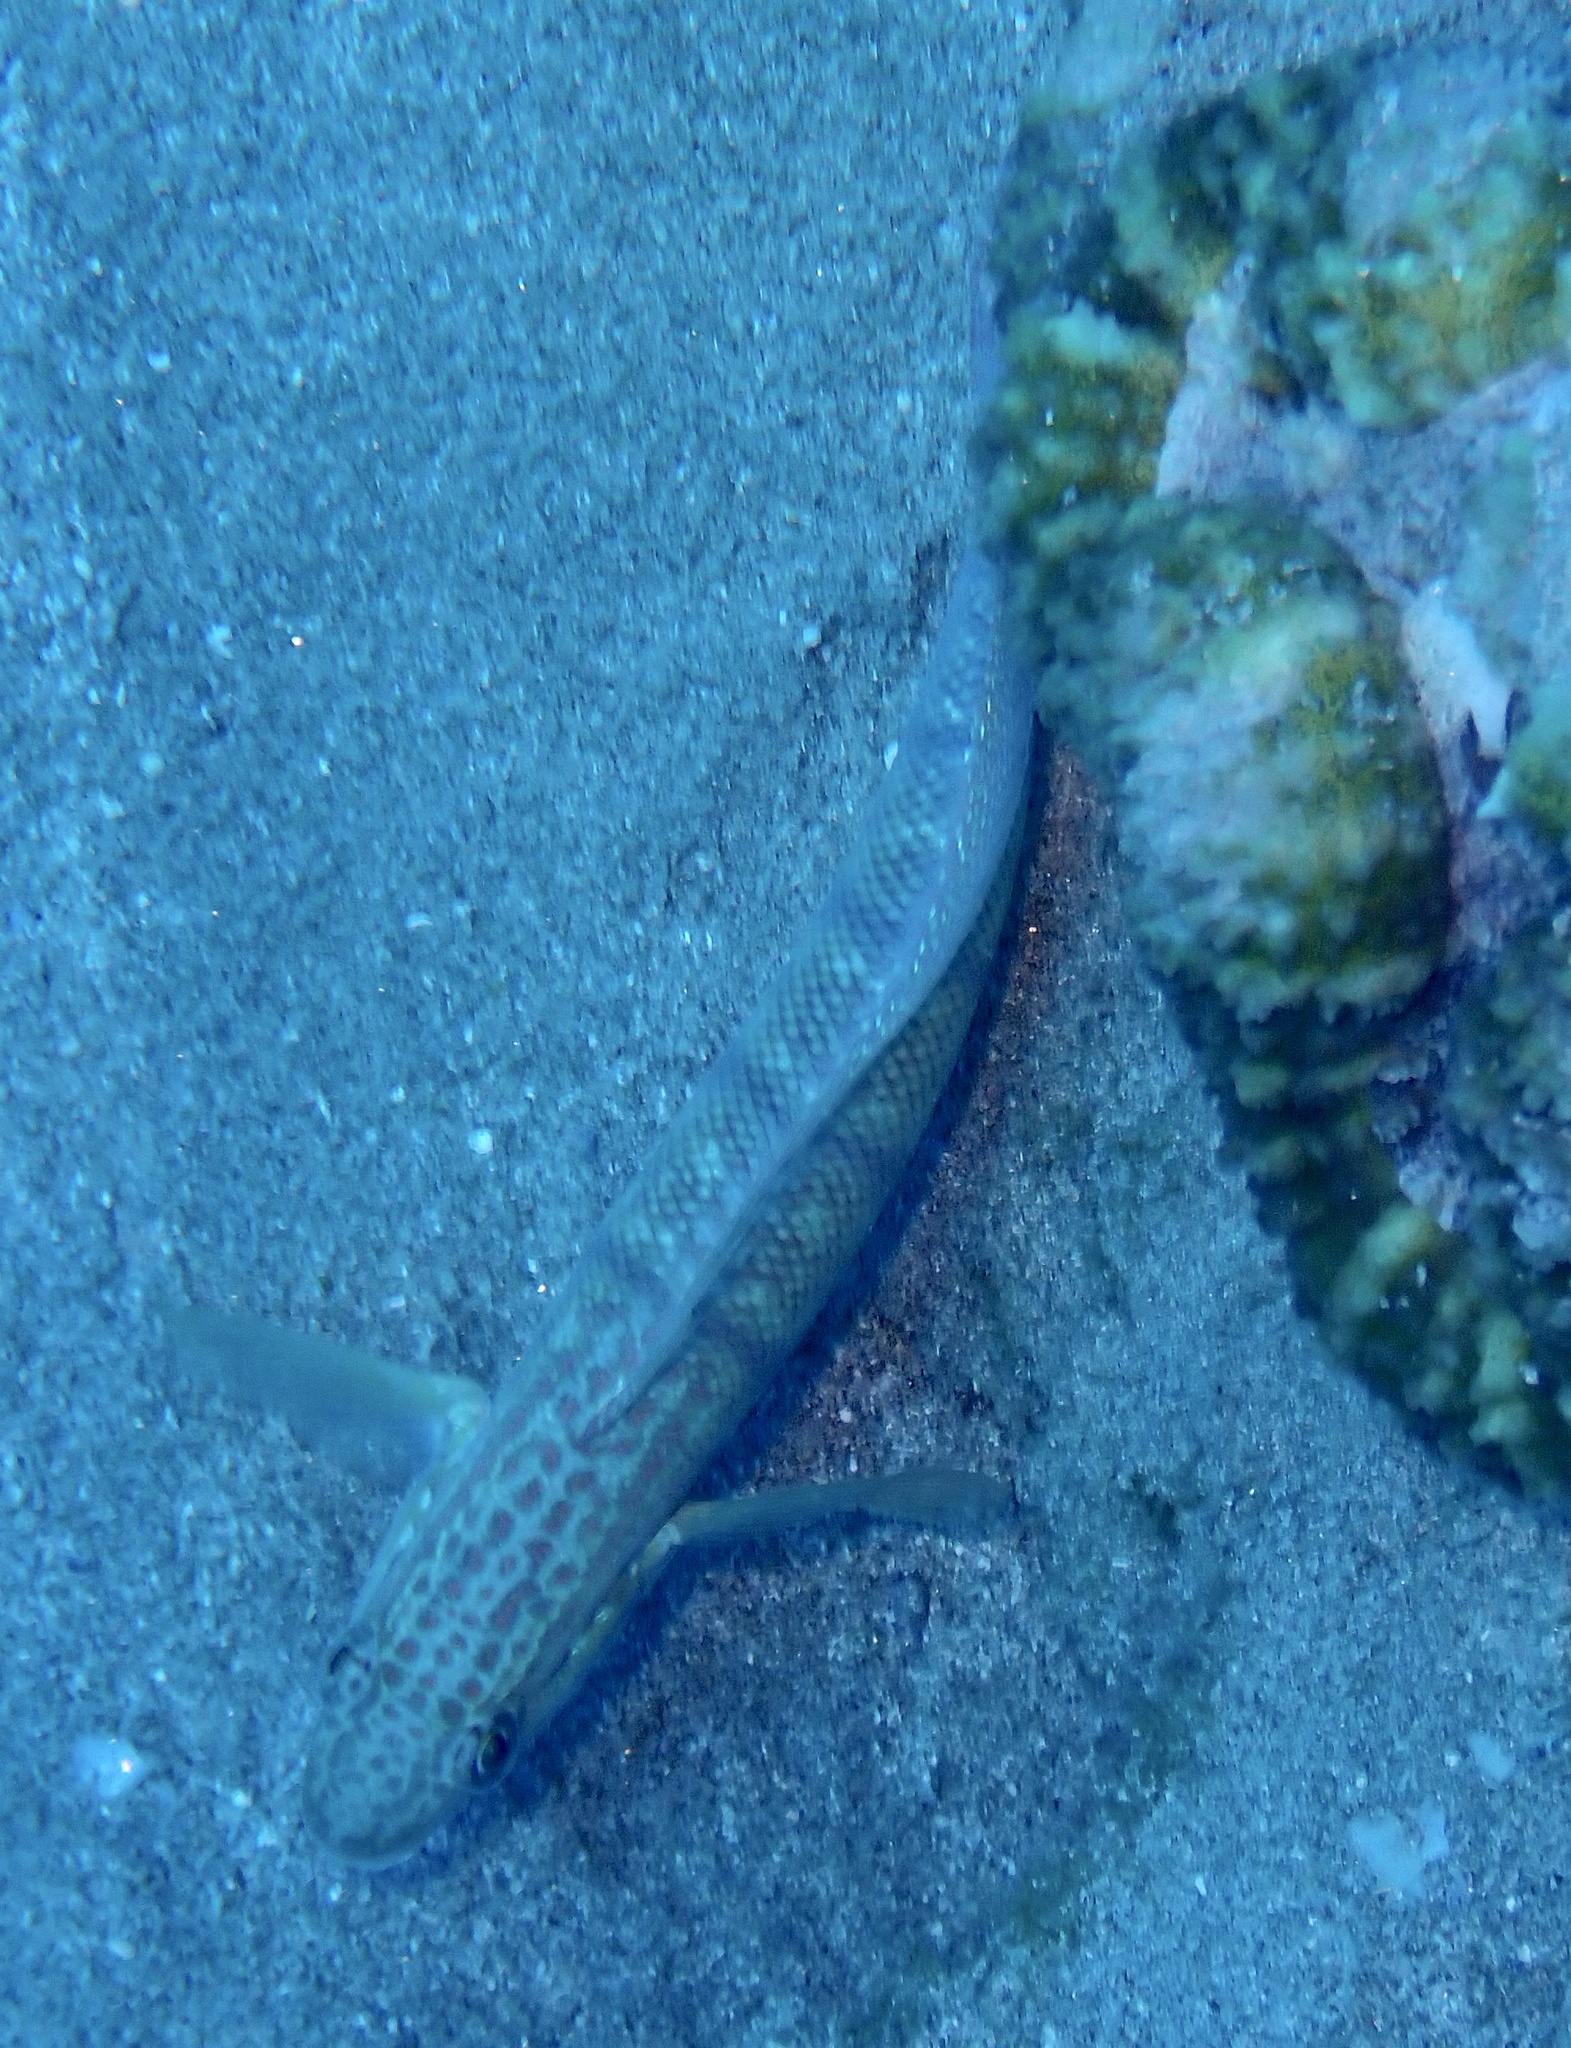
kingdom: Animalia
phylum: Chordata
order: Perciformes
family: Gobiidae
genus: Amblygobius
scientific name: Amblygobius albimaculatus
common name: Butterfly goby
